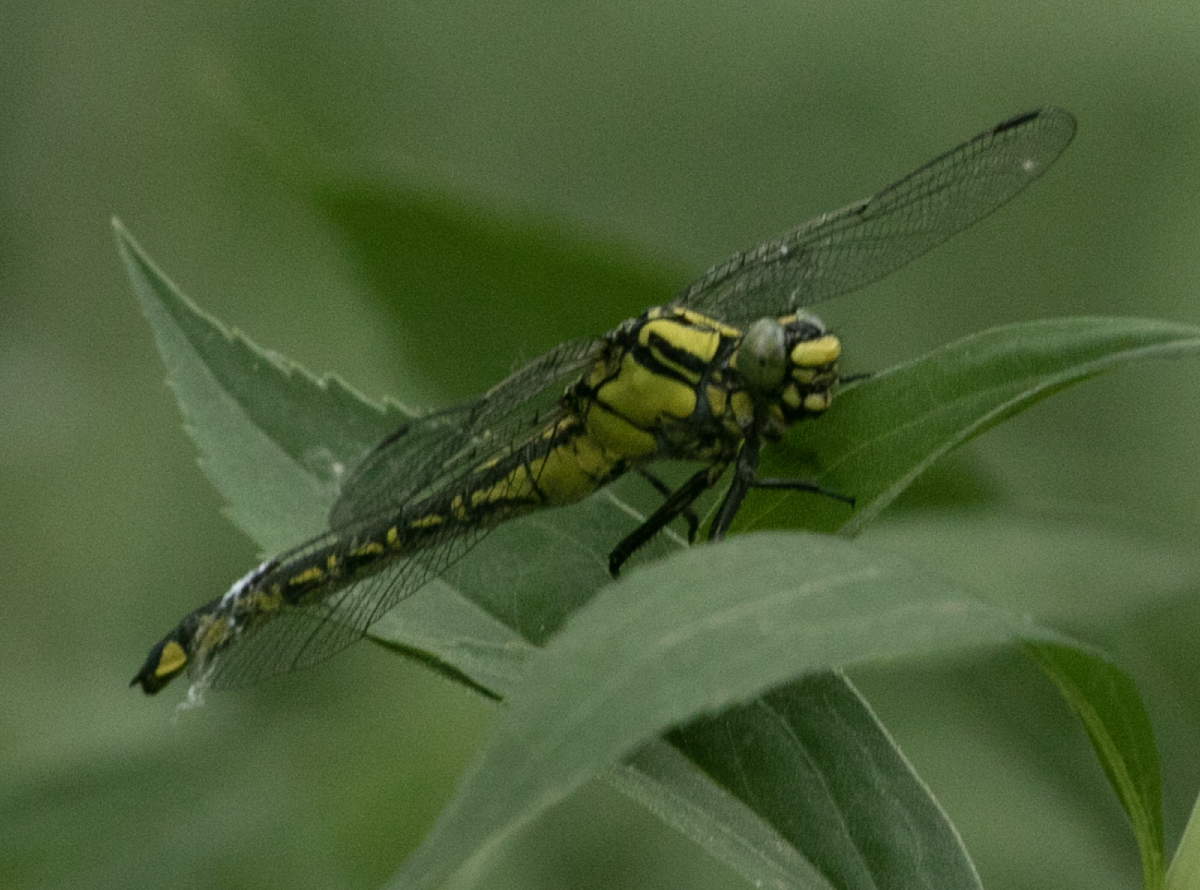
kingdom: Animalia
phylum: Arthropoda
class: Insecta
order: Odonata
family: Gomphidae
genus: Gomphus
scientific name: Gomphus vulgatissimus
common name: Club-tailed dragonfly
